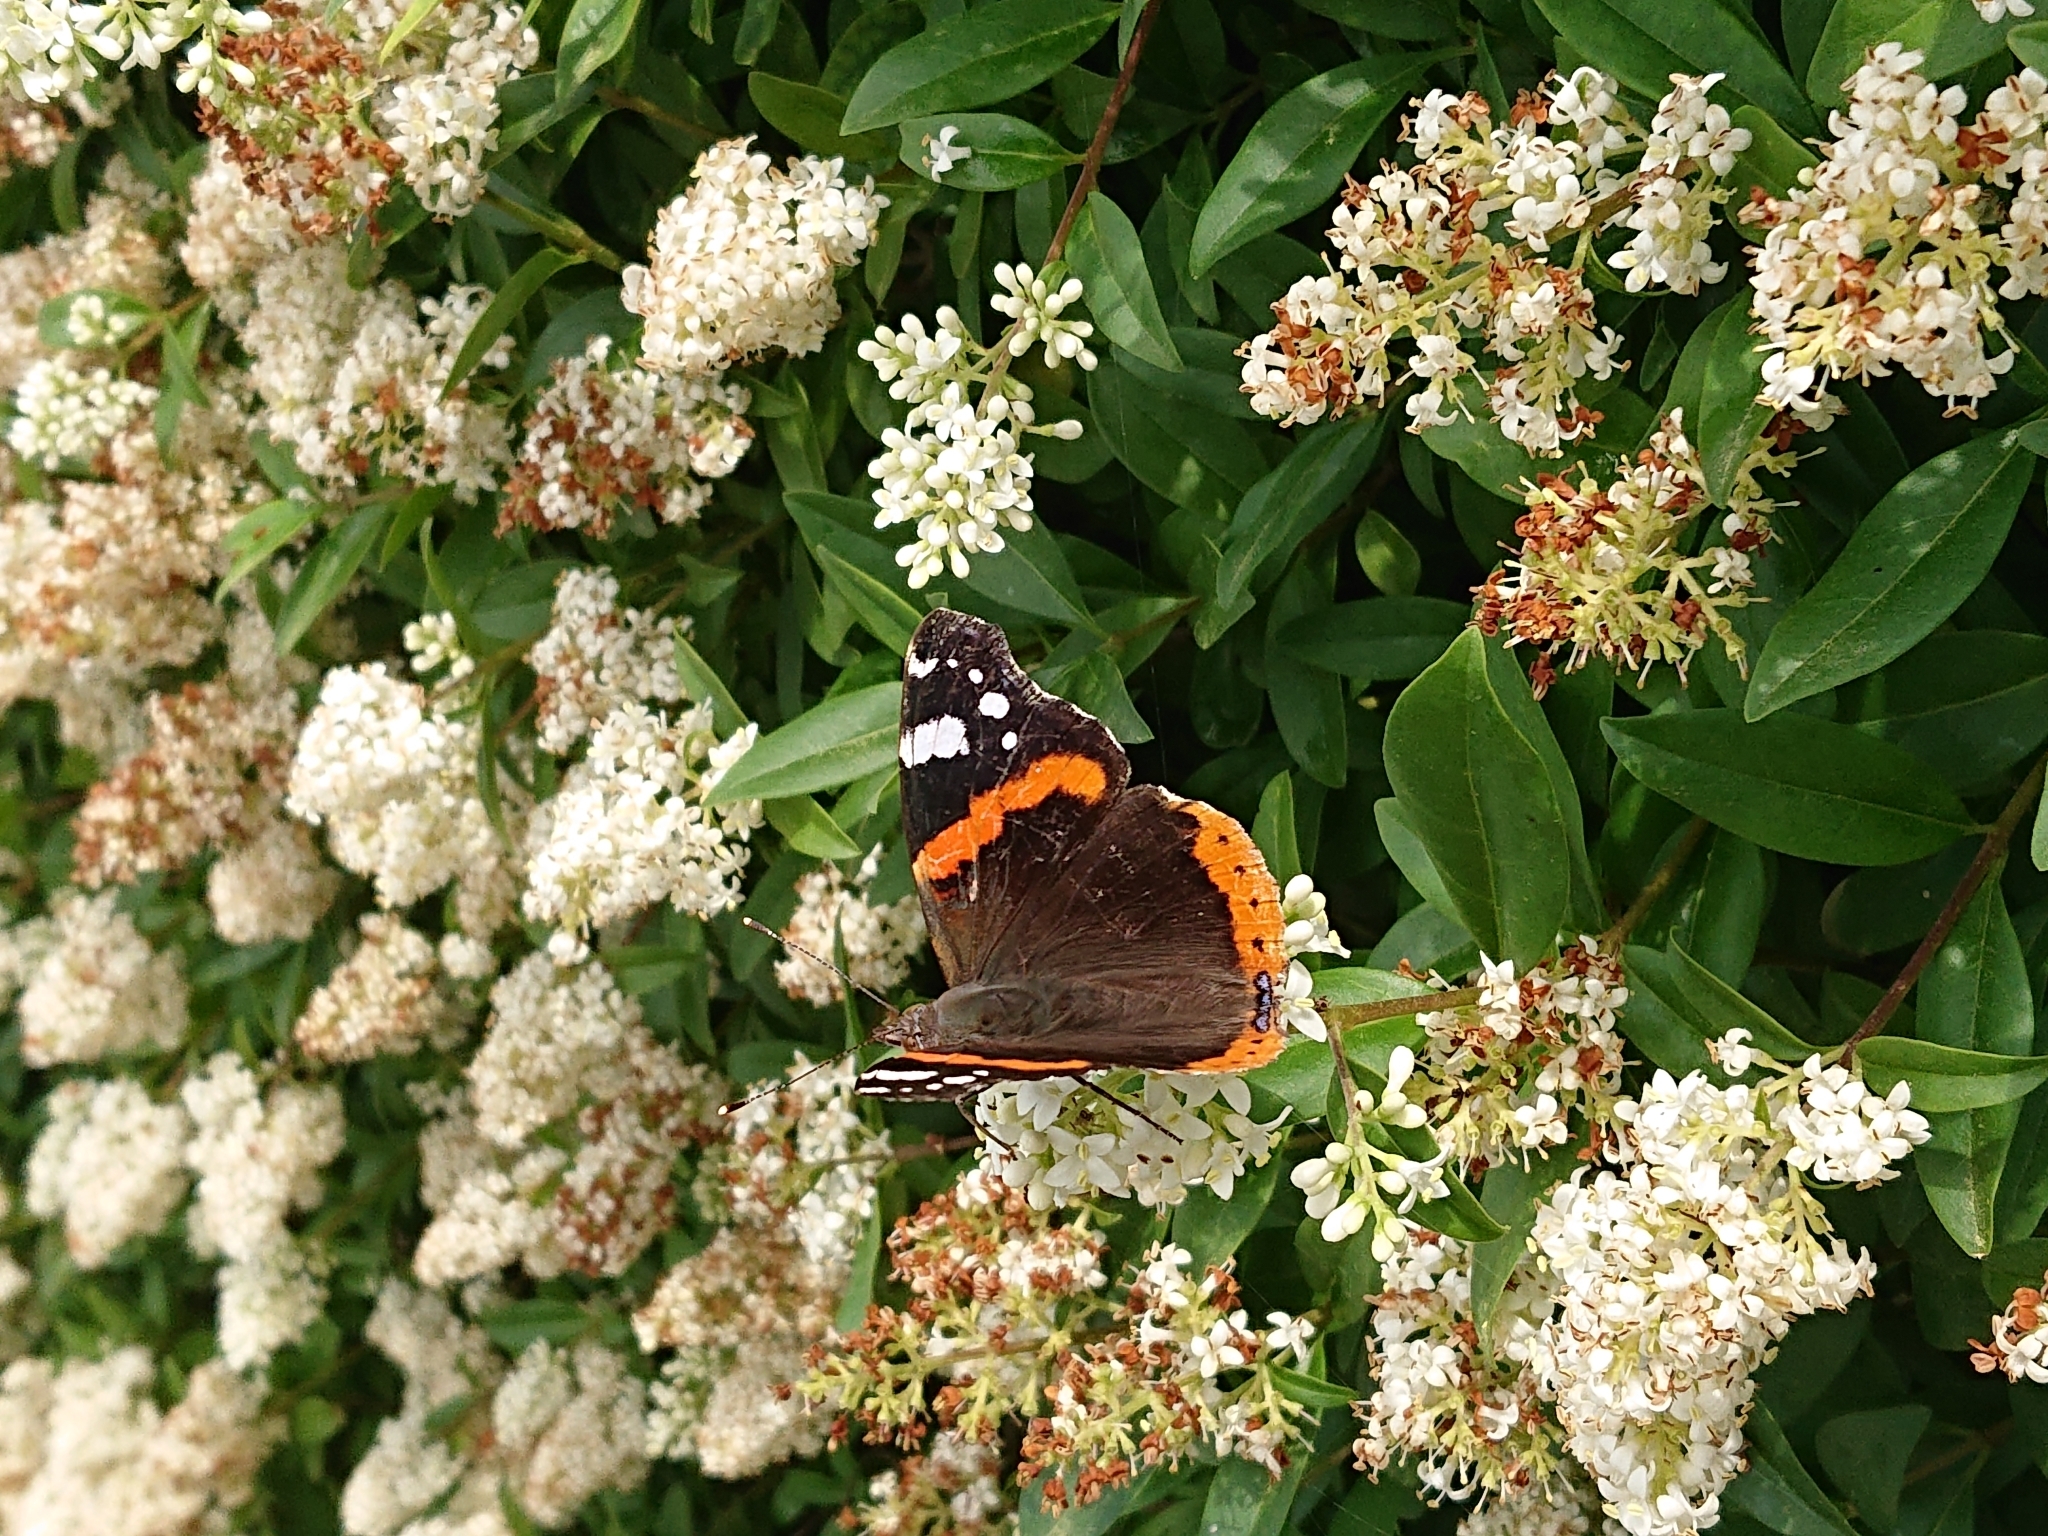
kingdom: Animalia
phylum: Arthropoda
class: Insecta
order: Lepidoptera
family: Nymphalidae
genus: Vanessa
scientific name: Vanessa atalanta
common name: Red admiral
